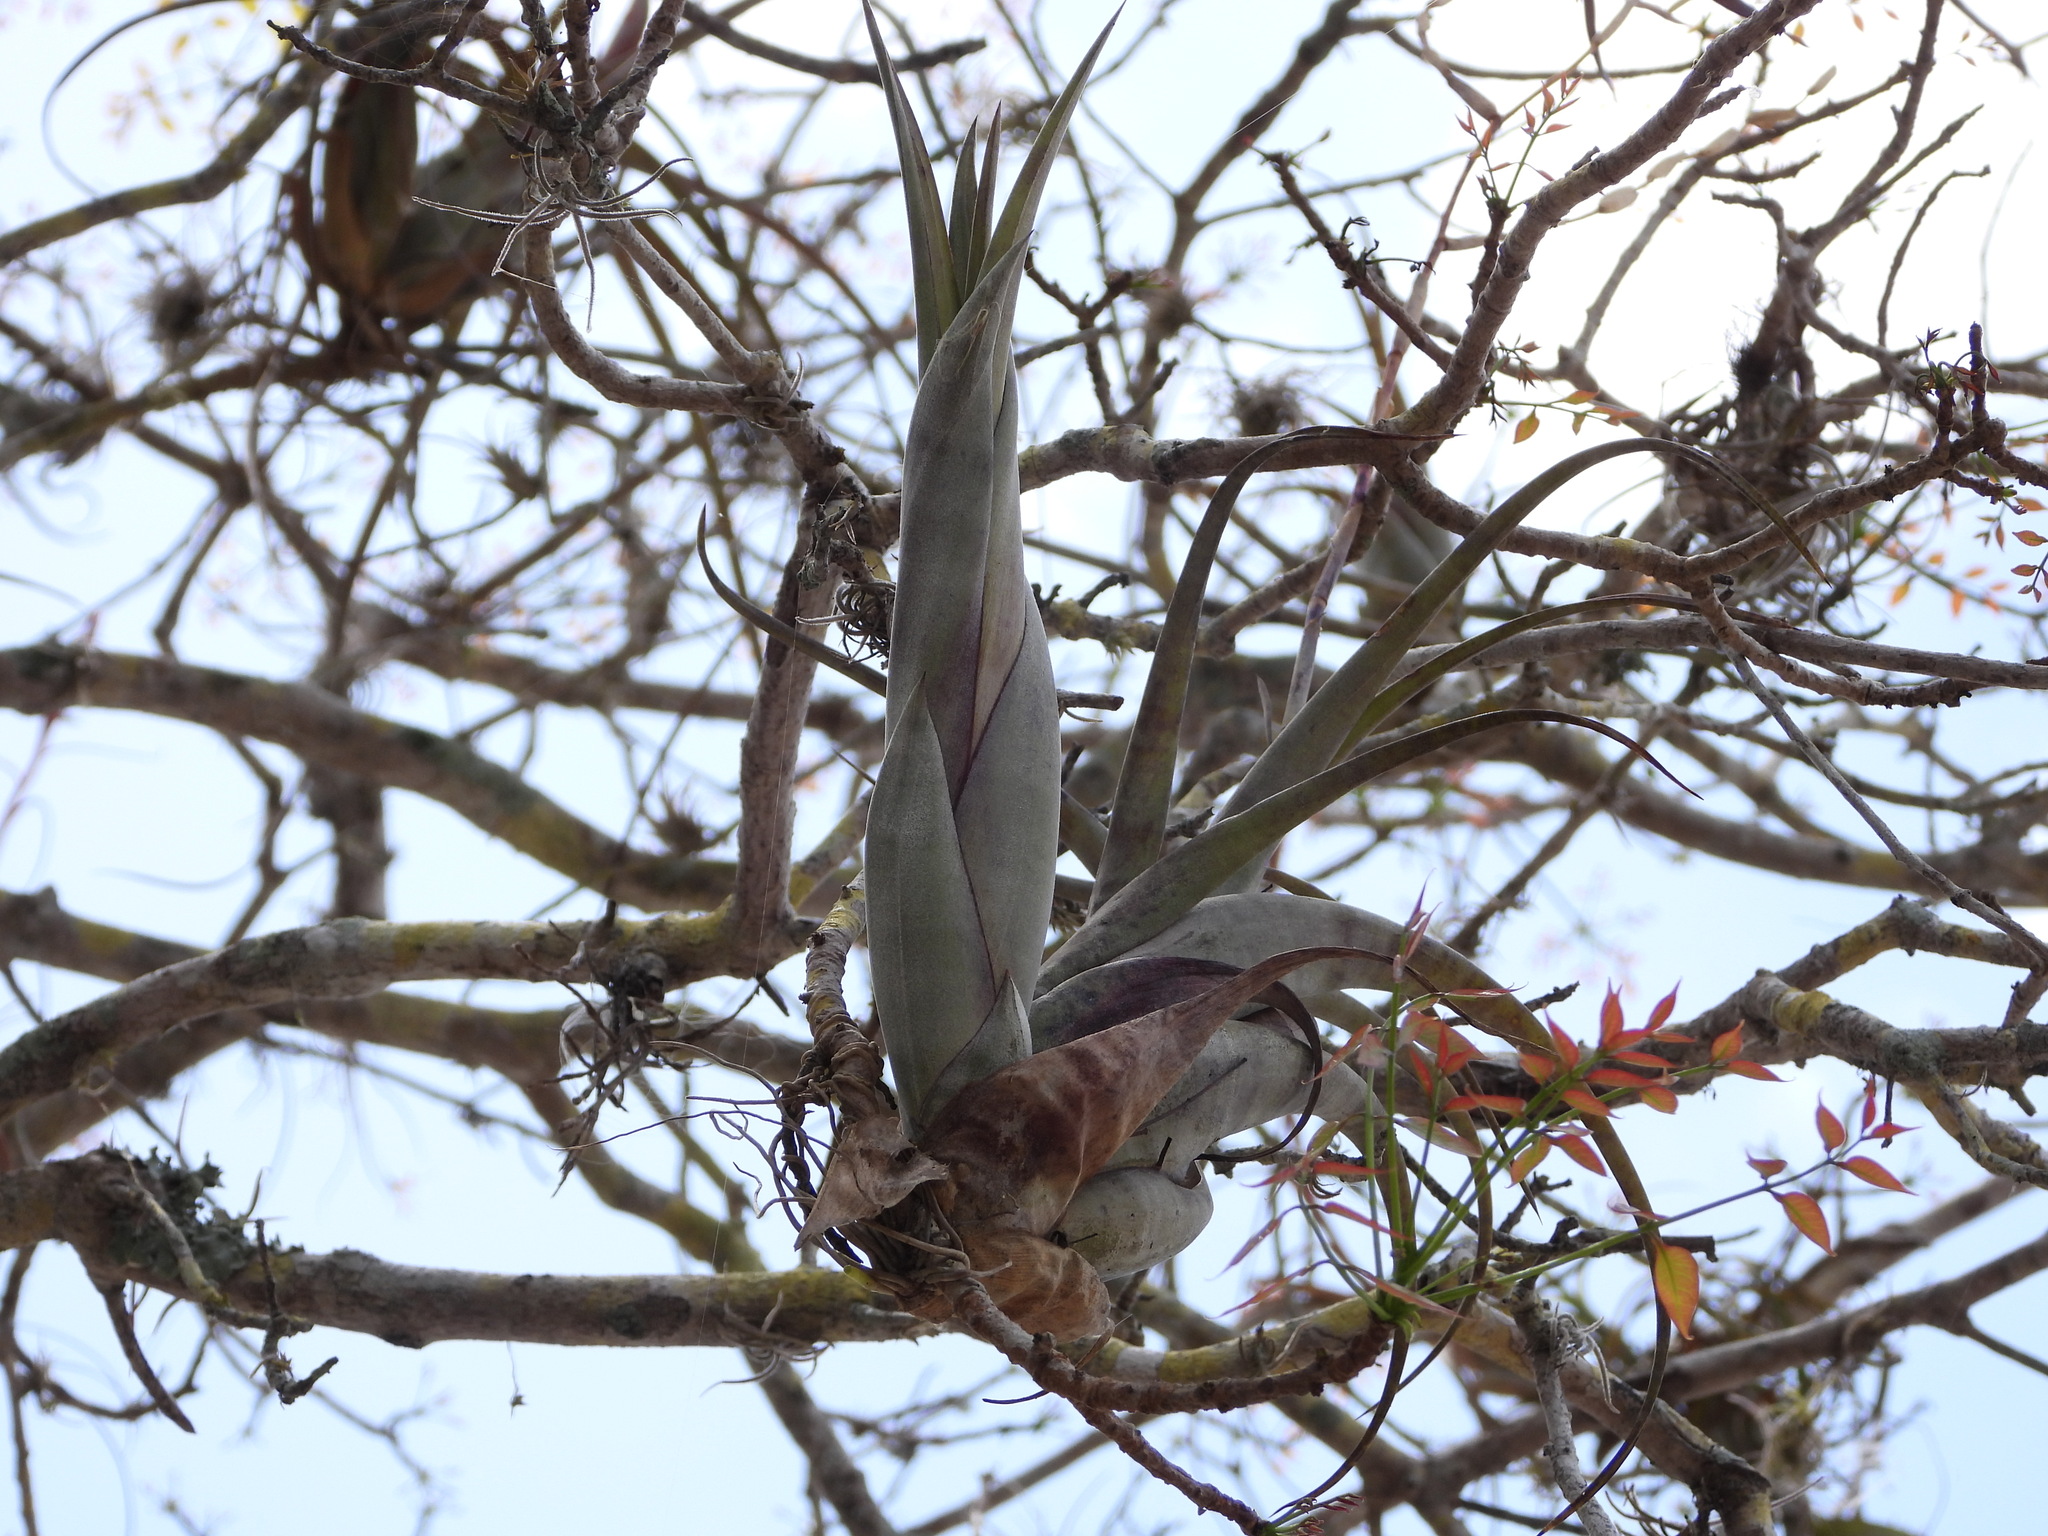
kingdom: Plantae
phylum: Tracheophyta
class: Liliopsida
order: Poales
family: Bromeliaceae
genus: Tillandsia
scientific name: Tillandsia flexuosa
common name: Banded airplant
